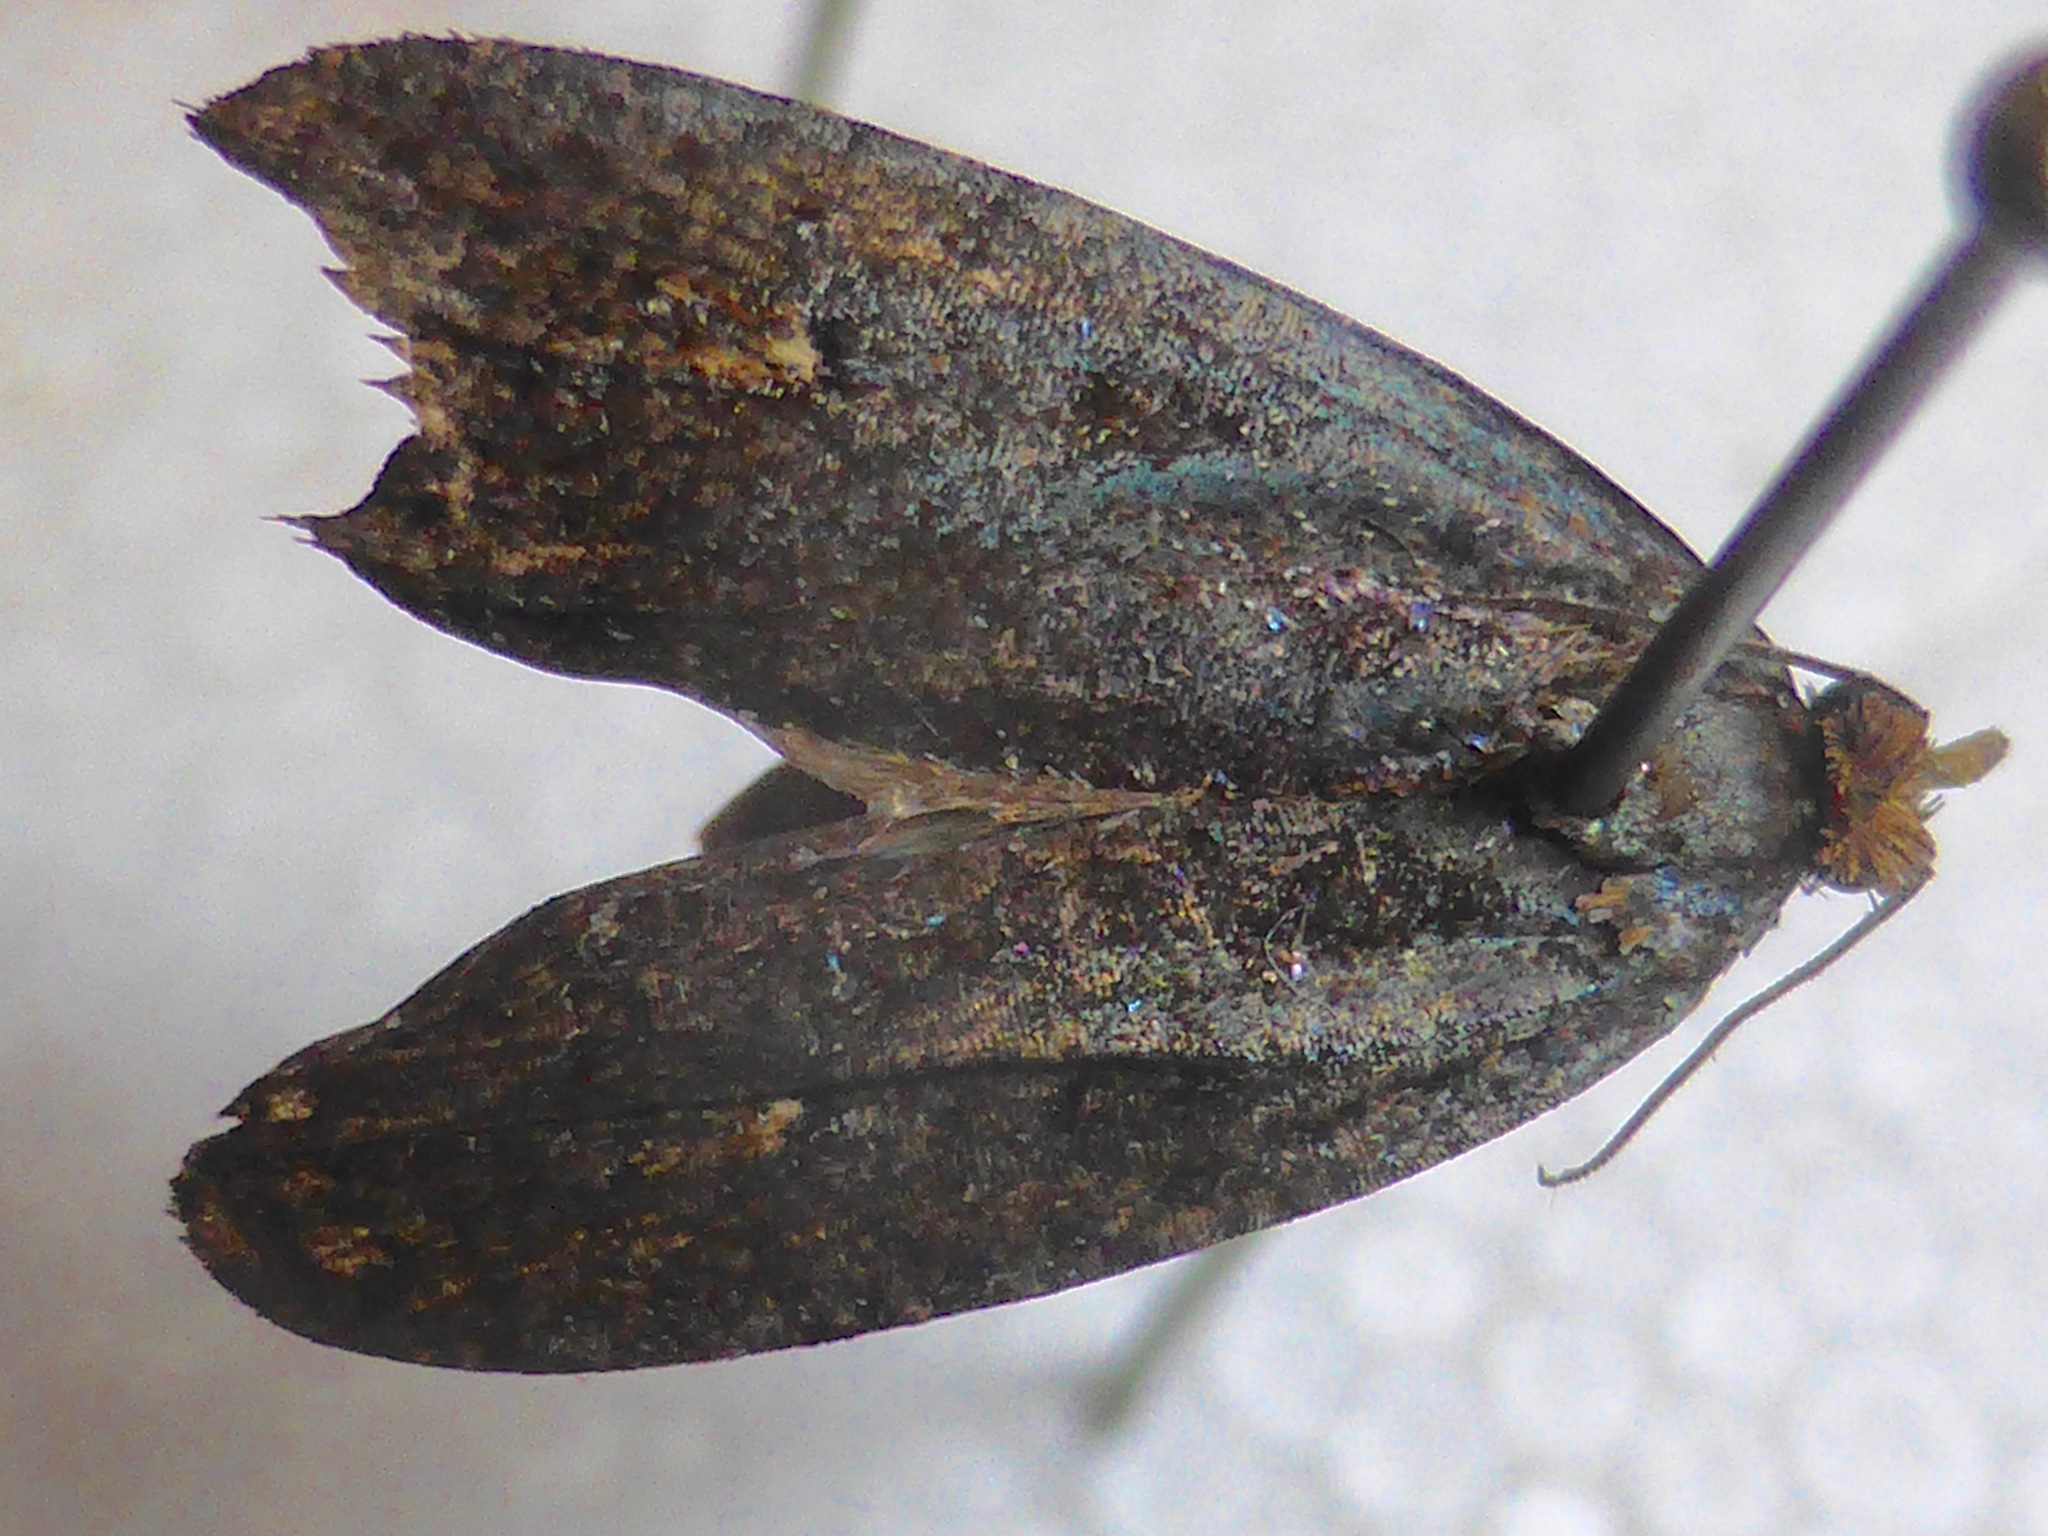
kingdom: Animalia
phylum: Arthropoda
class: Insecta
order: Lepidoptera
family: Tortricidae
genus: Cryptaspasma
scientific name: Cryptaspasma querula
